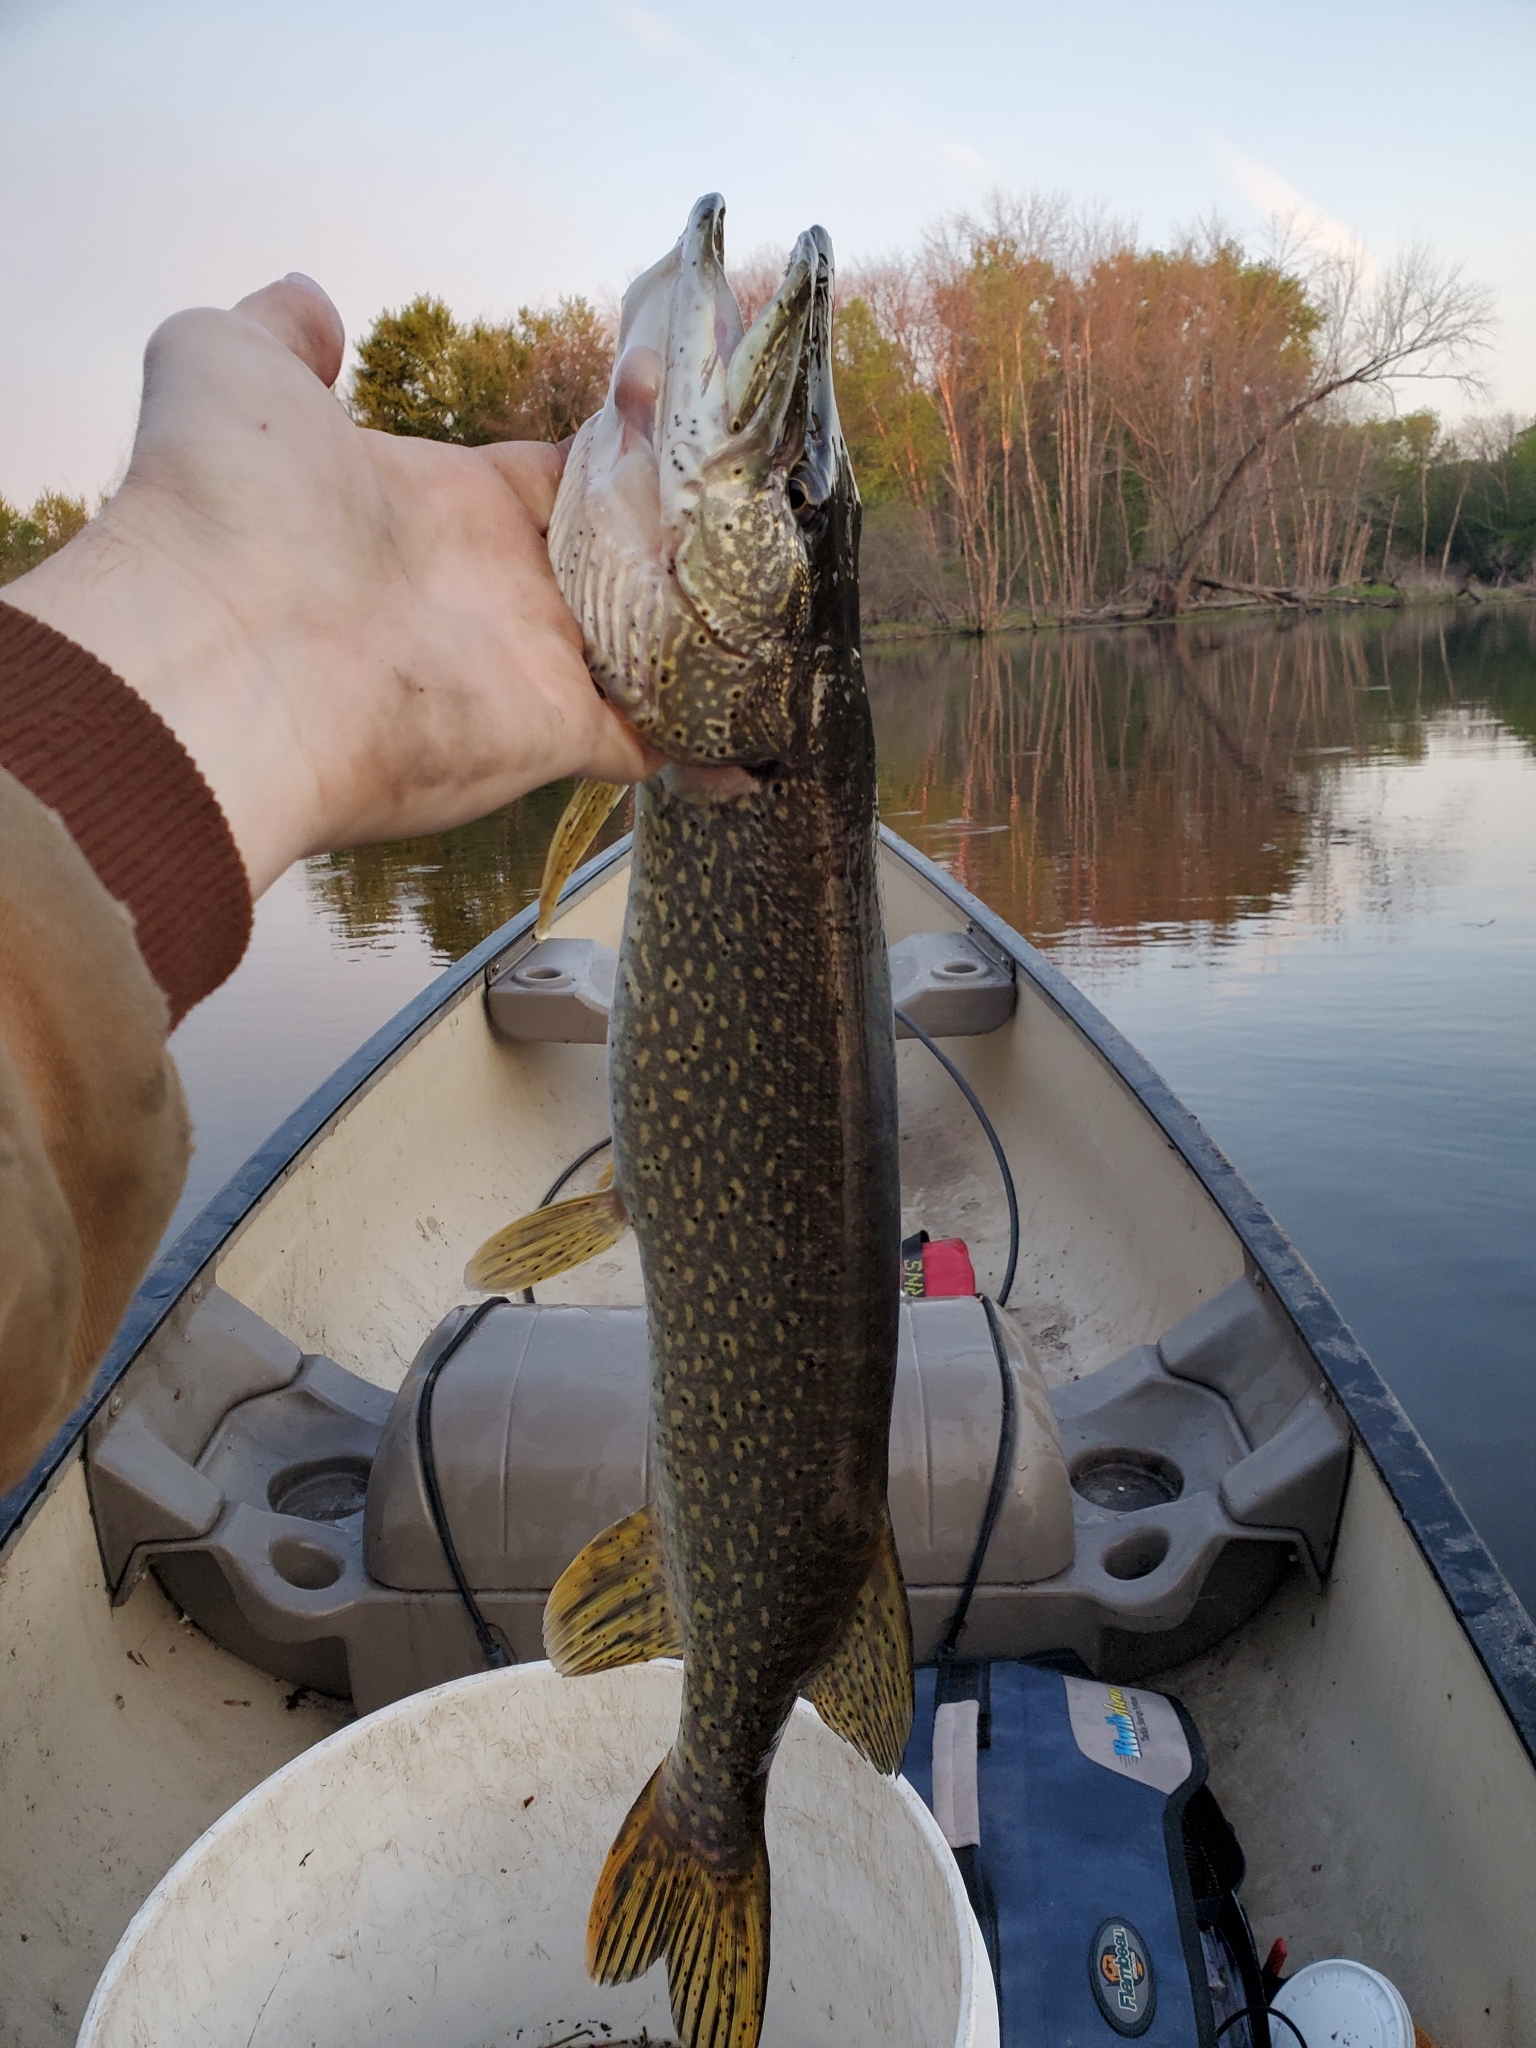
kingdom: Animalia
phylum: Chordata
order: Esociformes
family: Esocidae
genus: Esox
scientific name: Esox lucius
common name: Northern pike
